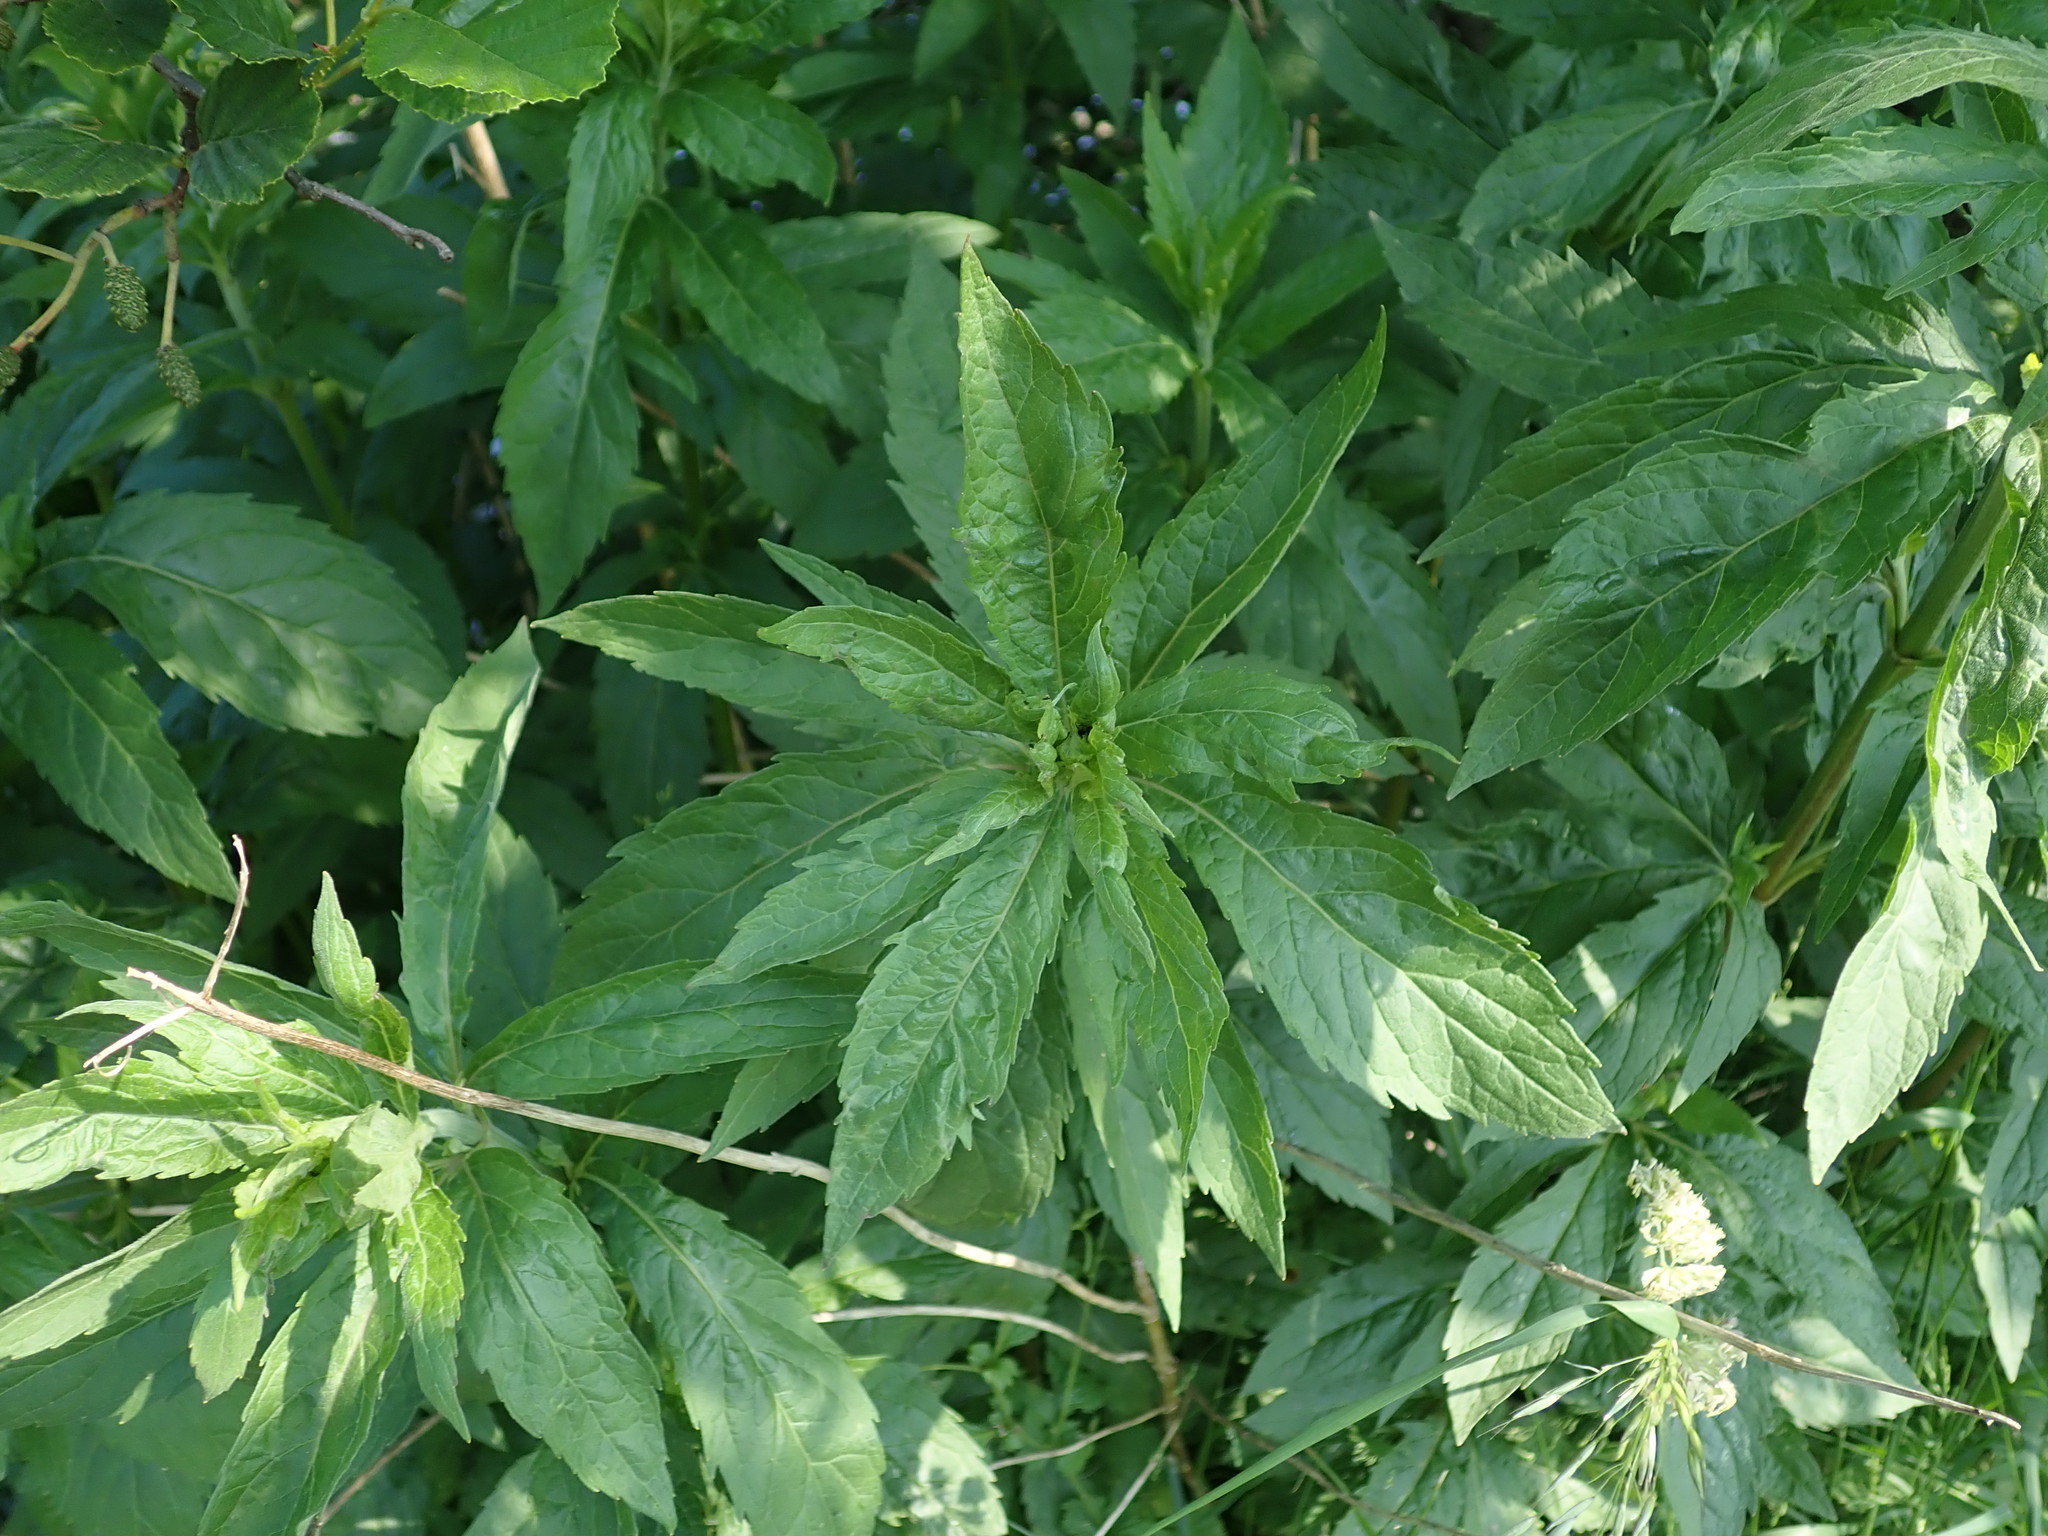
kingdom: Plantae
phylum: Tracheophyta
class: Magnoliopsida
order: Asterales
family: Asteraceae
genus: Eupatorium
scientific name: Eupatorium cannabinum
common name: Hemp-agrimony
